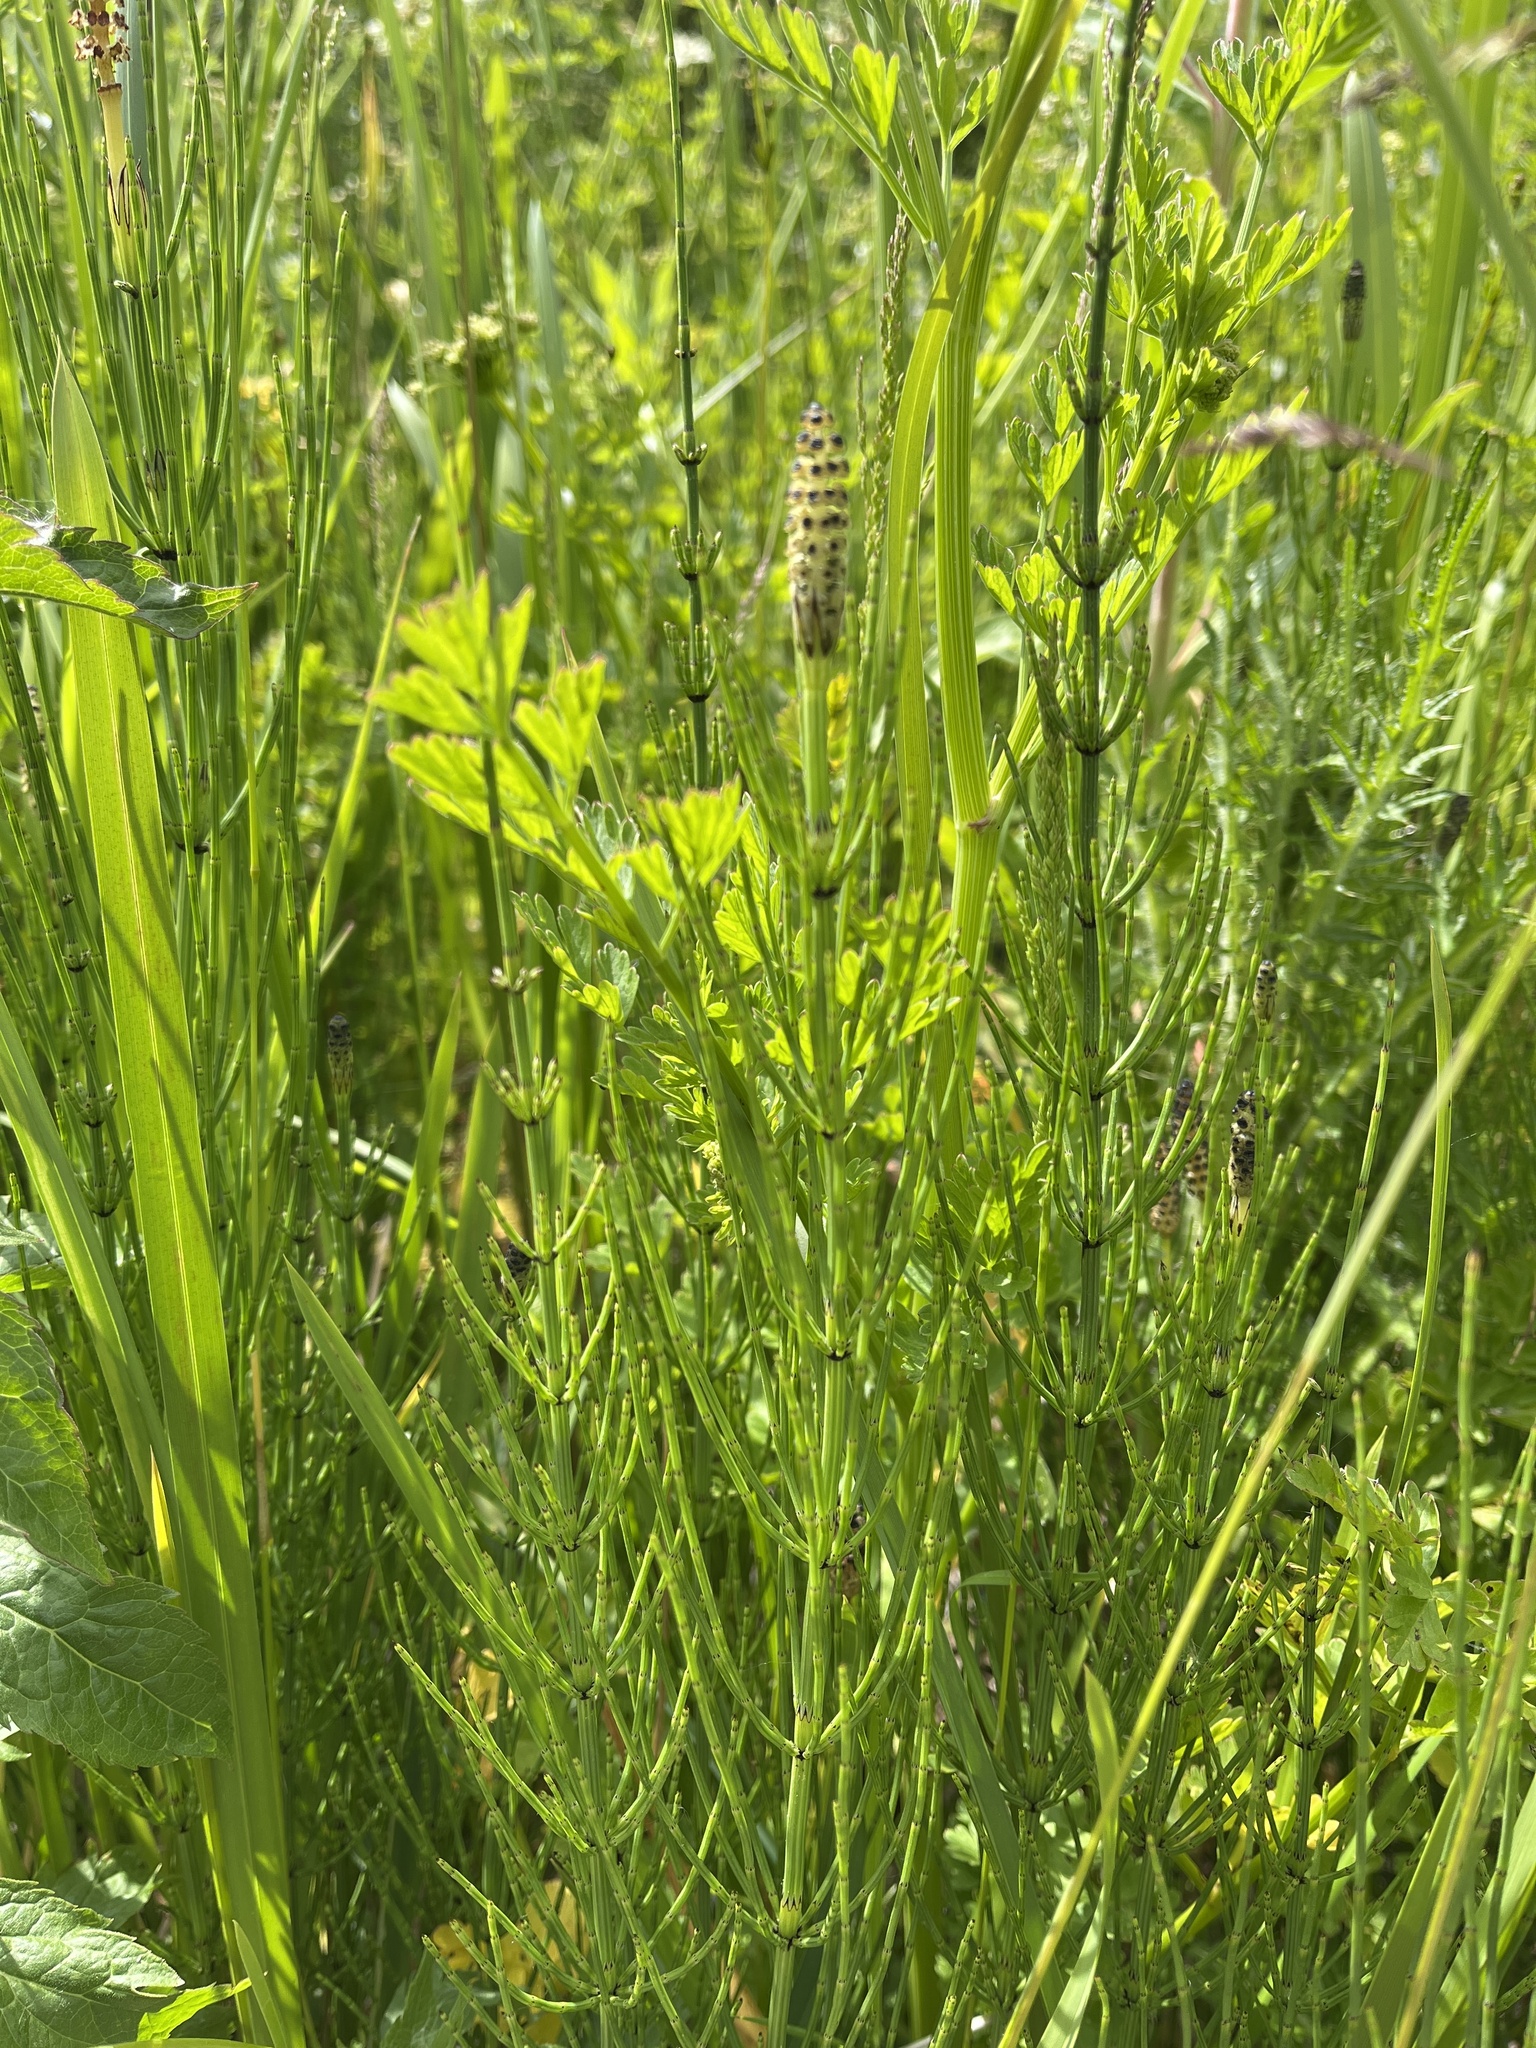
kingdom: Plantae
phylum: Tracheophyta
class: Polypodiopsida
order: Equisetales
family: Equisetaceae
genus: Equisetum
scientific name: Equisetum palustre
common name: Marsh horsetail
